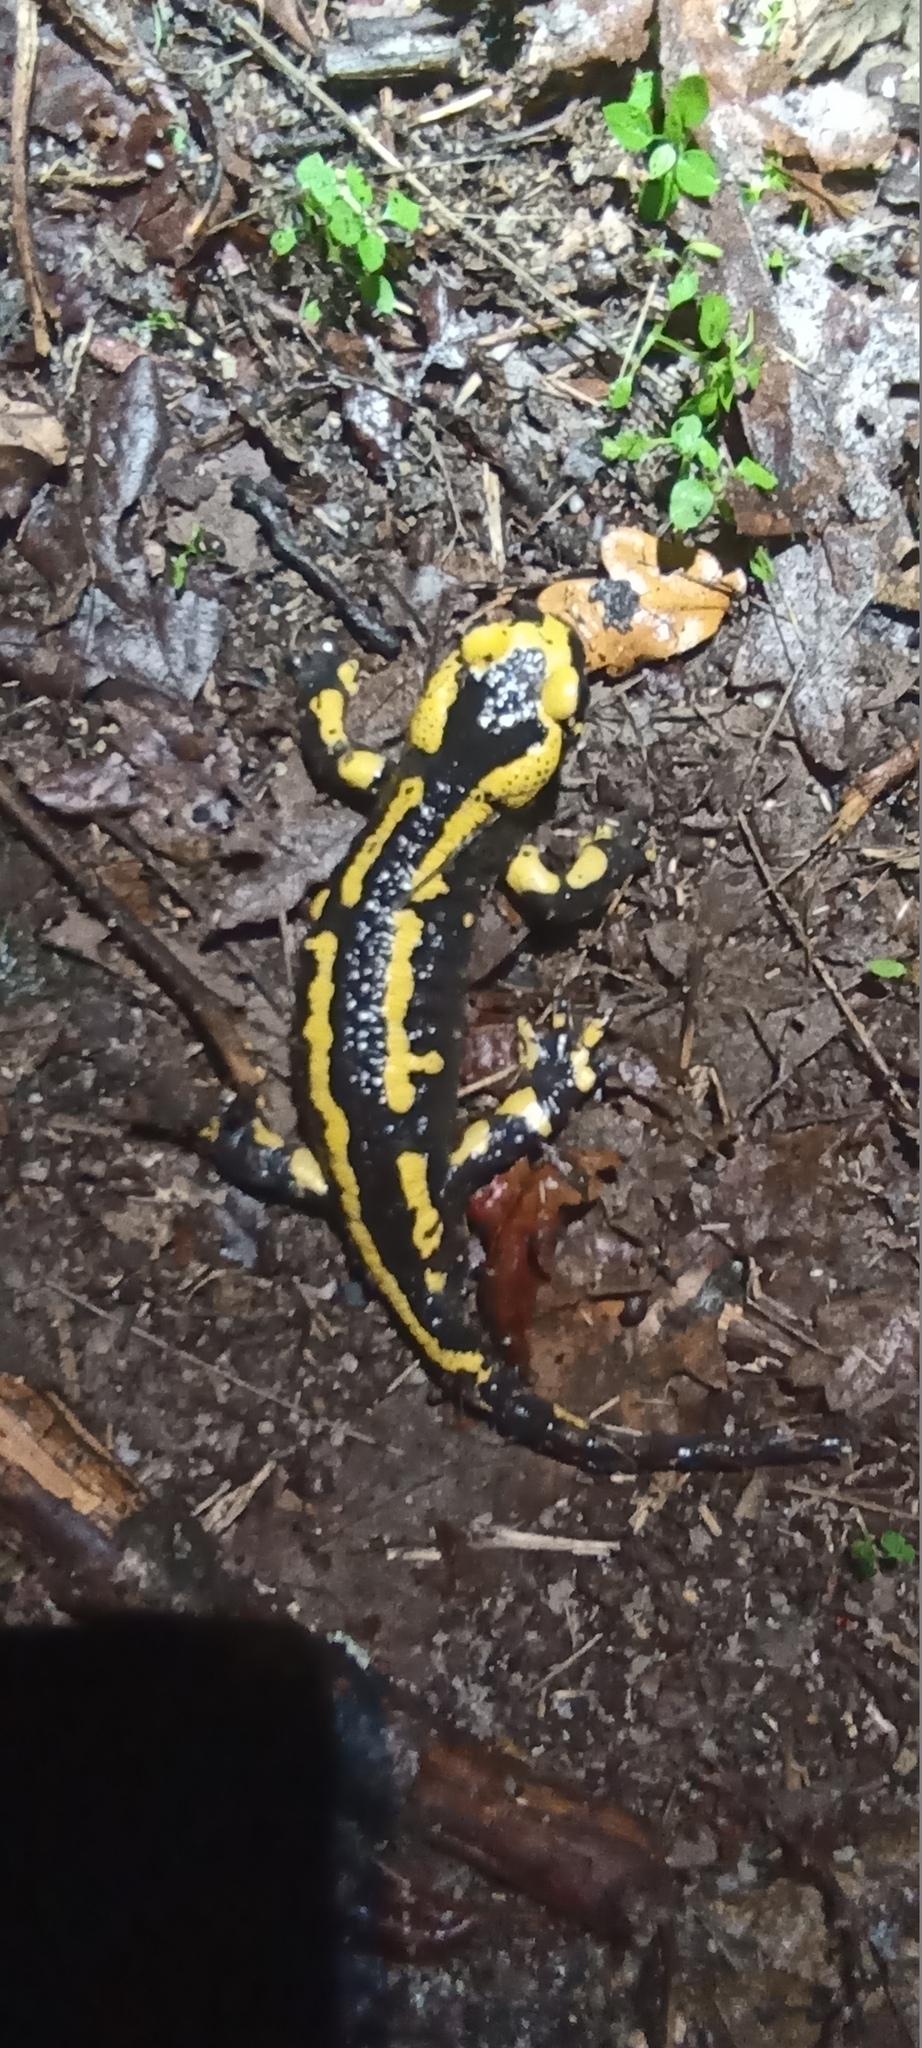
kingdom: Animalia
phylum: Chordata
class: Amphibia
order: Caudata
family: Salamandridae
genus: Salamandra
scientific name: Salamandra salamandra
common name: Fire salamander
